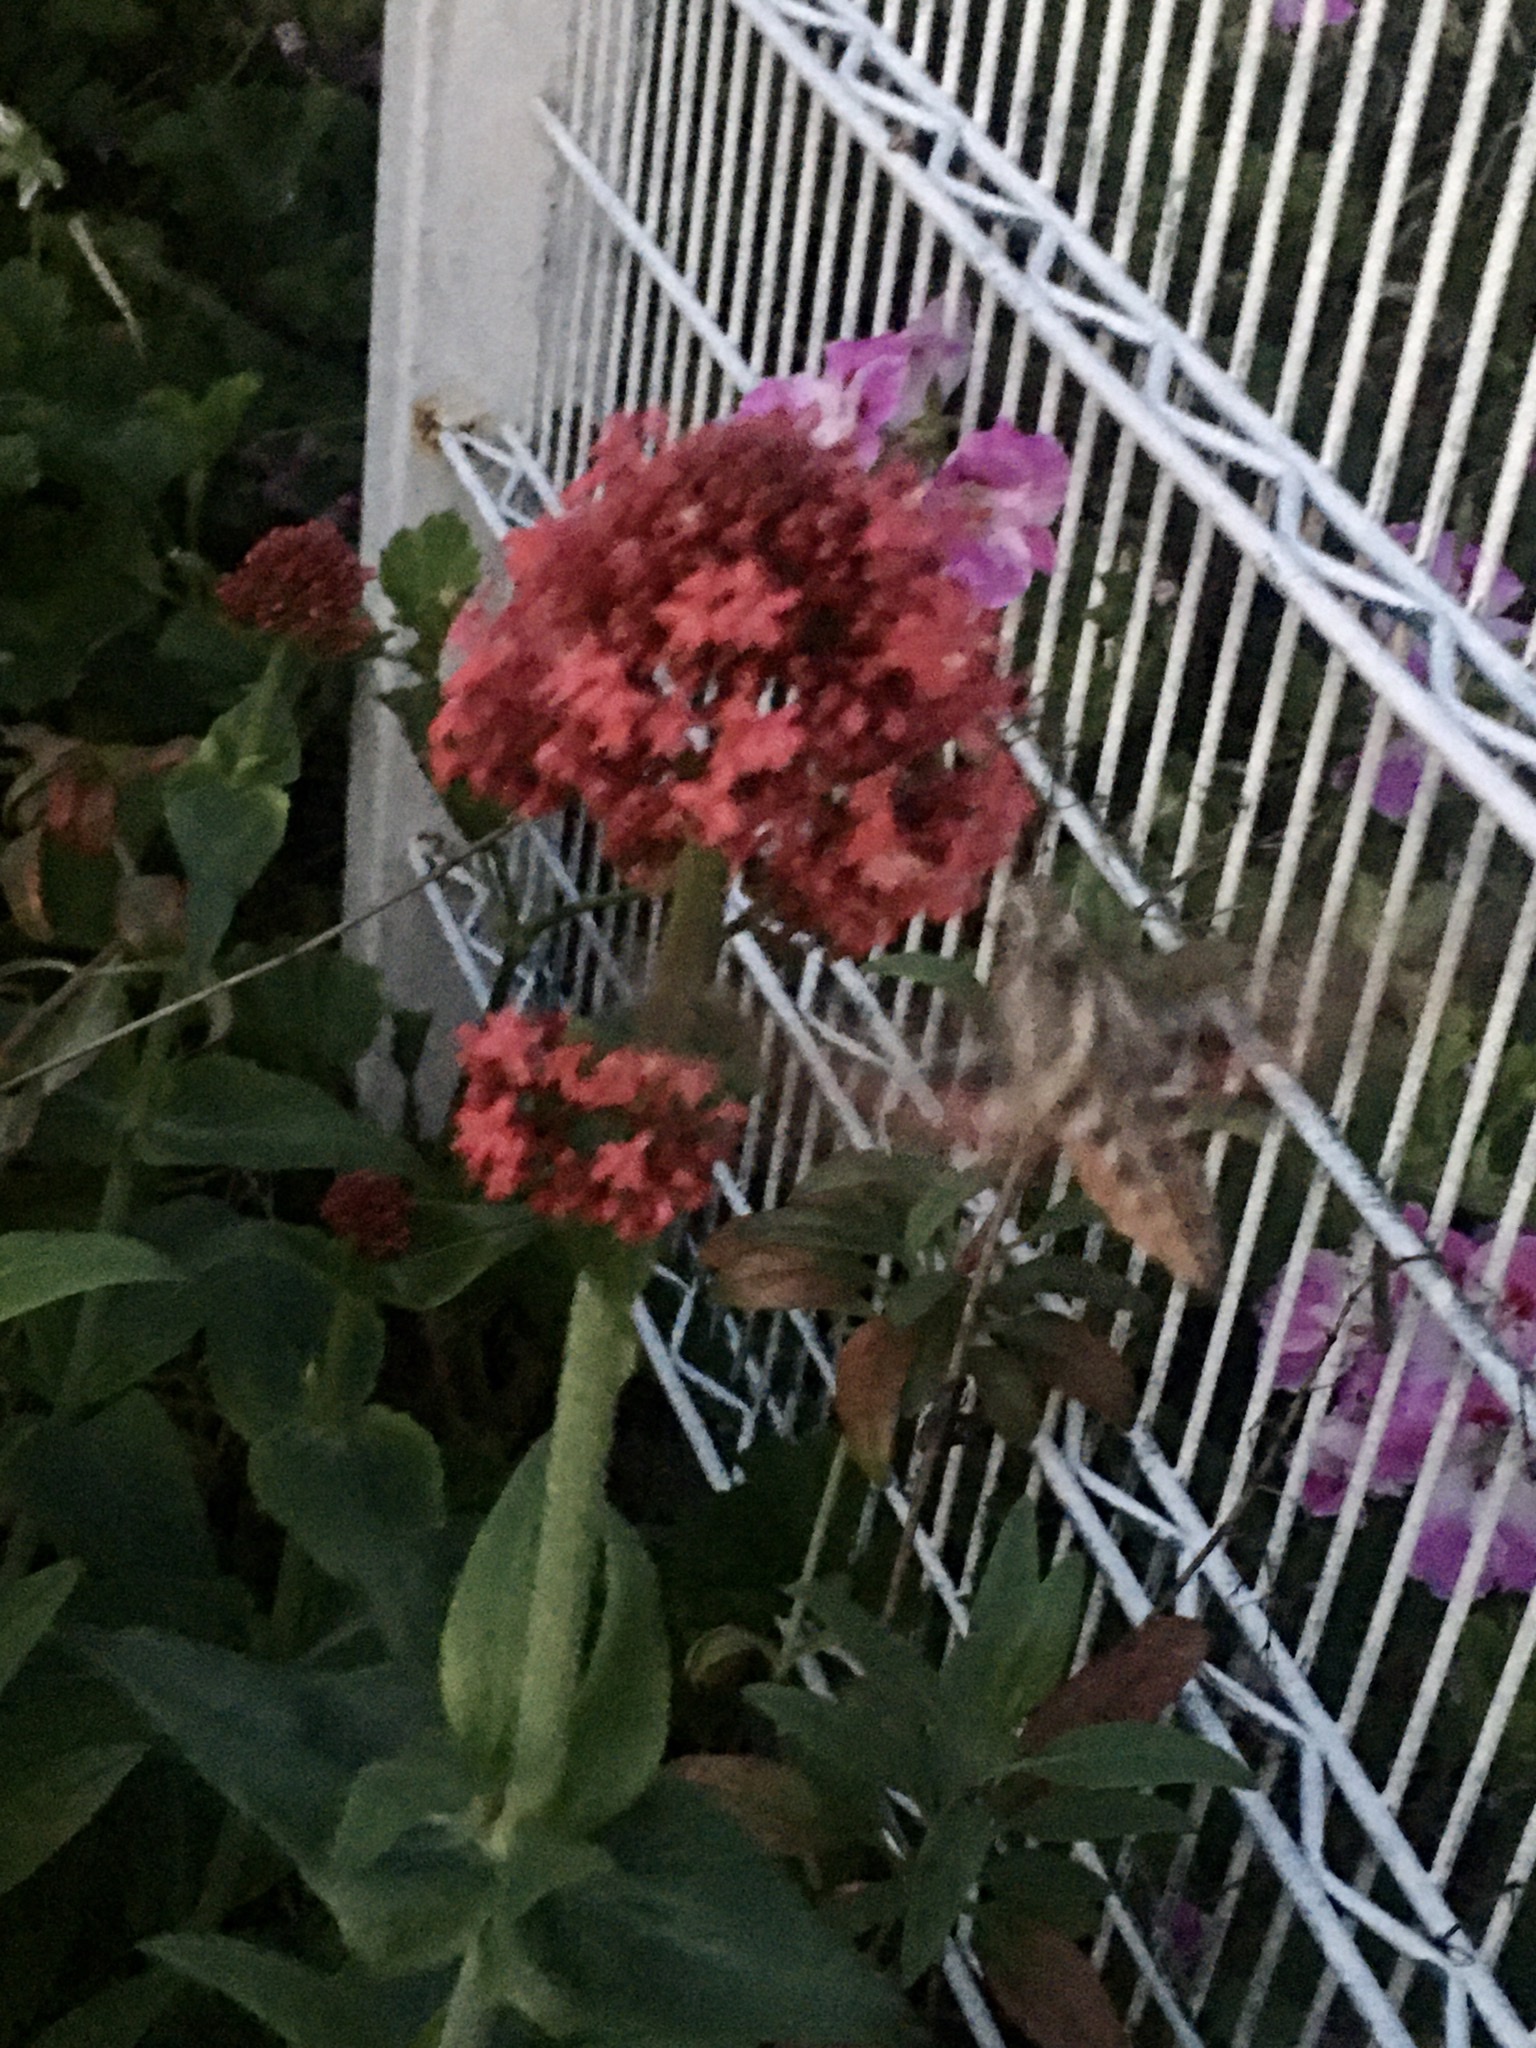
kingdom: Animalia
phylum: Arthropoda
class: Insecta
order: Lepidoptera
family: Sphingidae
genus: Hyles
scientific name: Hyles lineata
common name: White-lined sphinx
